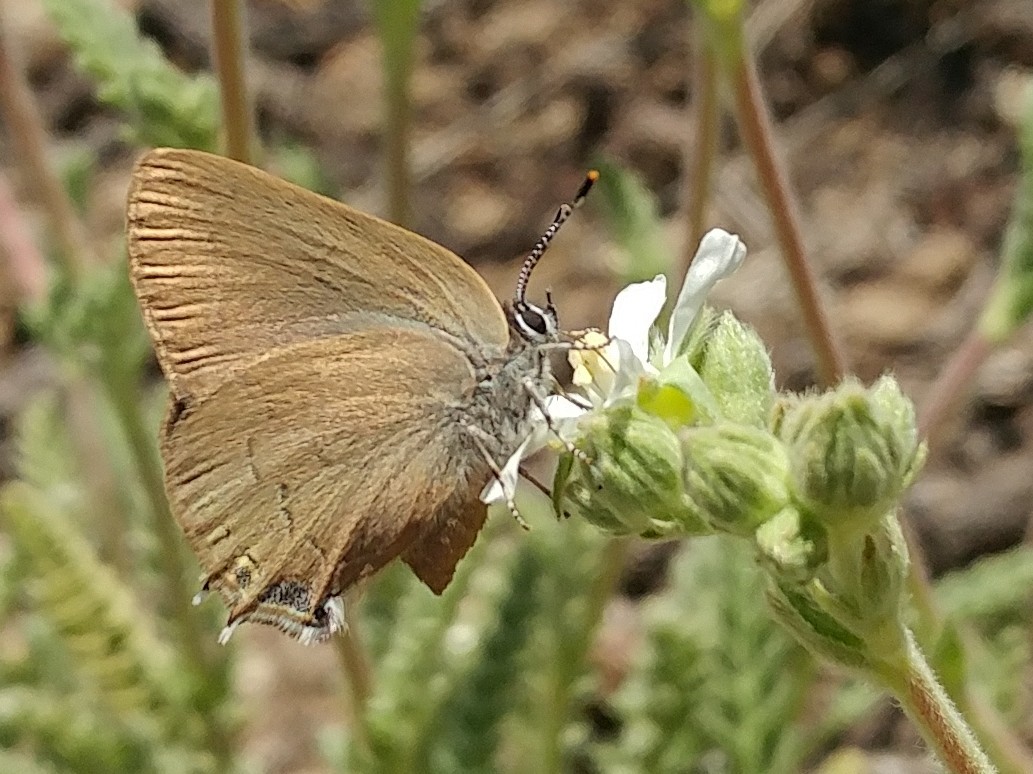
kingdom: Animalia
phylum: Arthropoda
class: Insecta
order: Lepidoptera
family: Lycaenidae
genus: Satyrium
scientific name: Satyrium calanus
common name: Banded hairstreak
